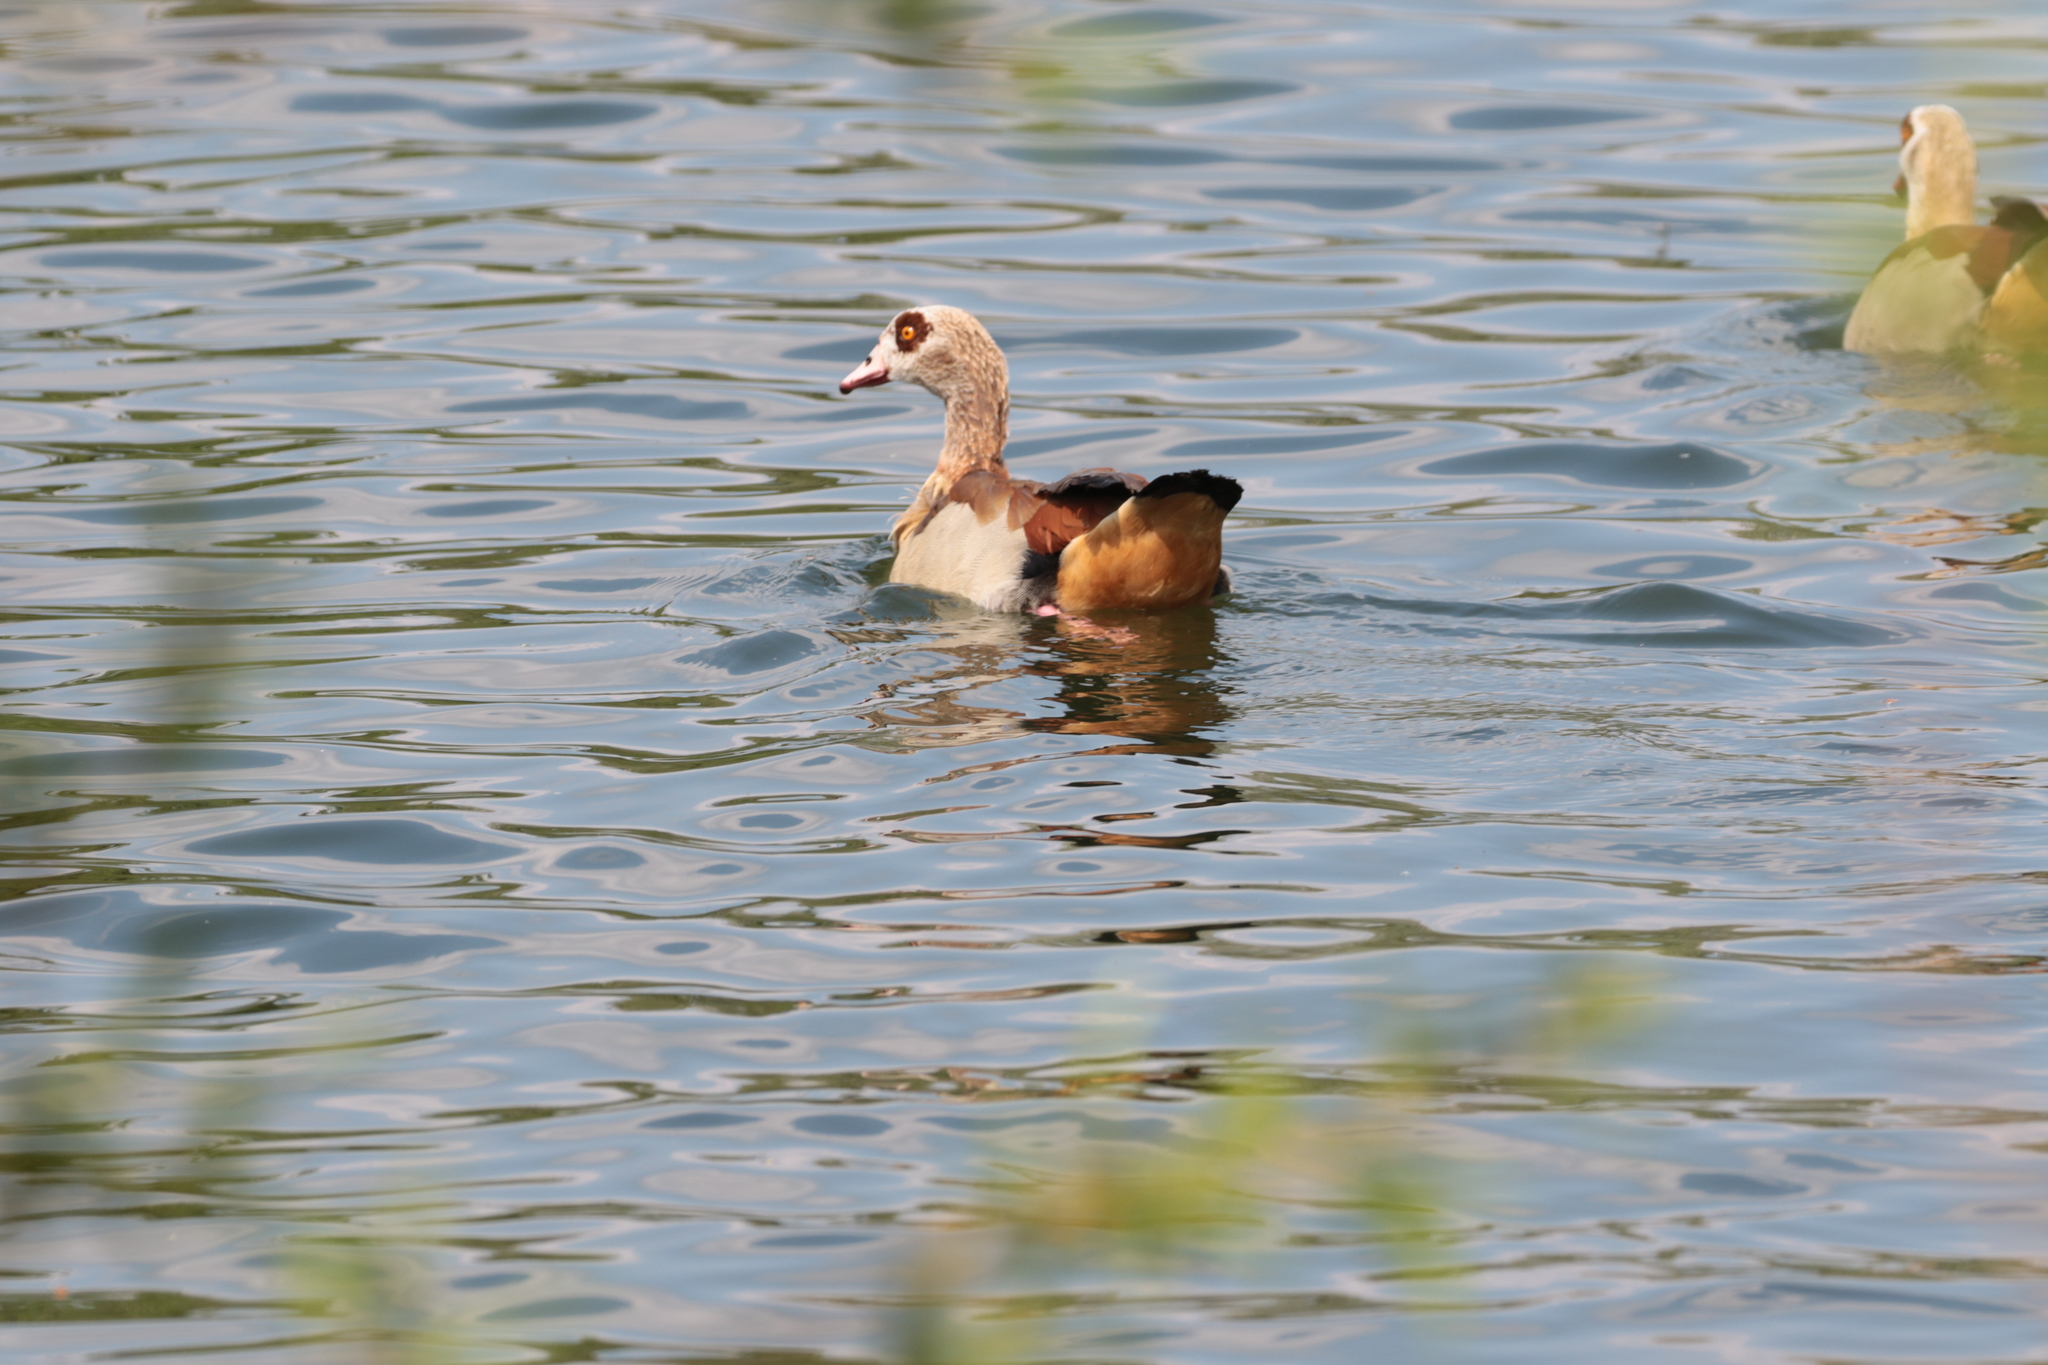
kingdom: Animalia
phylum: Chordata
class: Aves
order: Anseriformes
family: Anatidae
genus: Alopochen
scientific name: Alopochen aegyptiaca
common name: Egyptian goose
